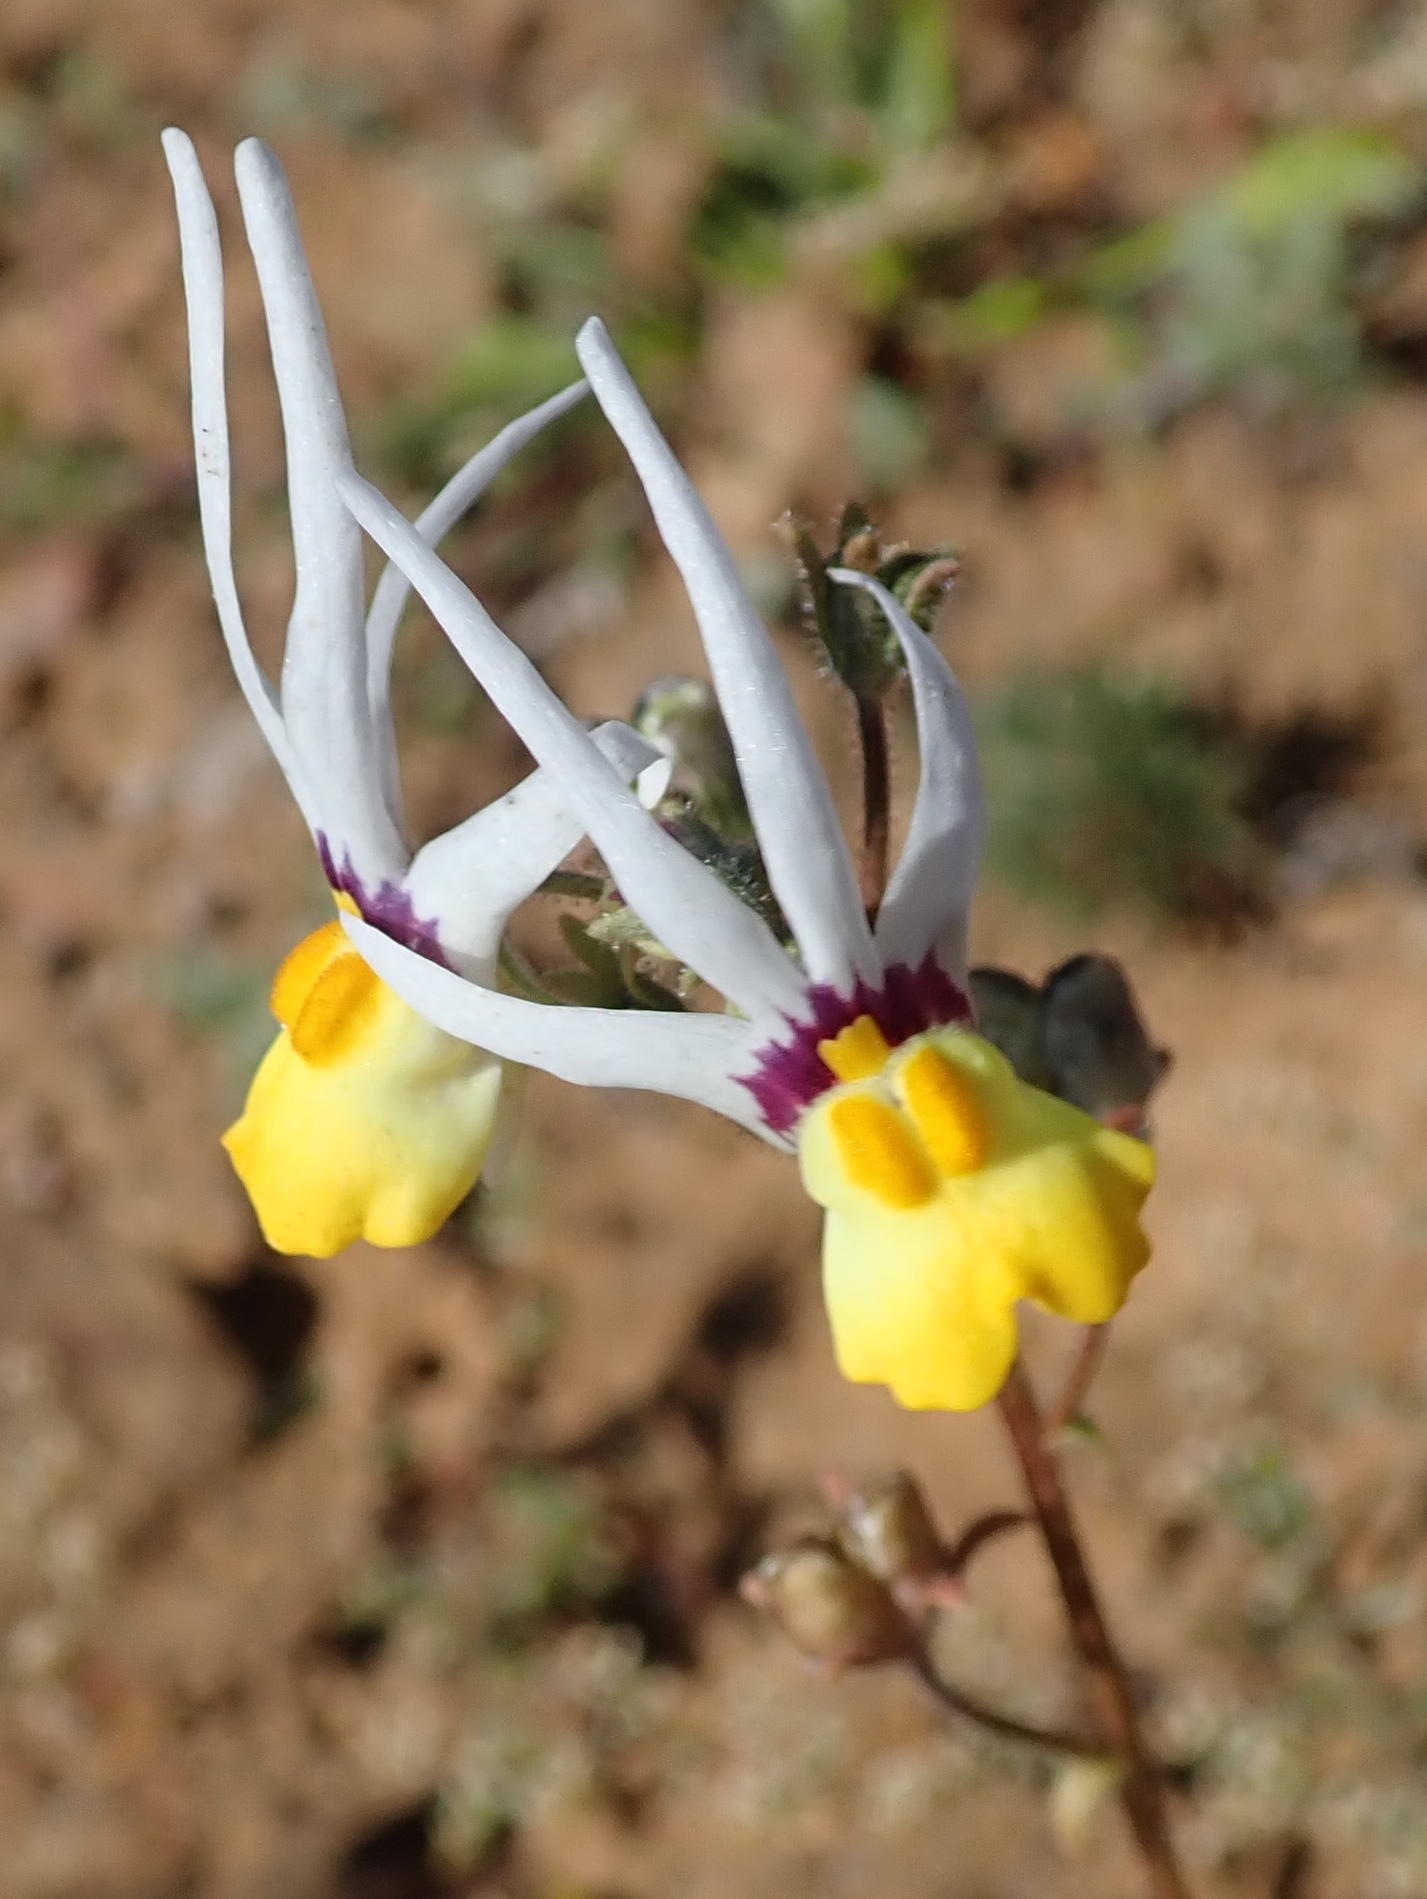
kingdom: Plantae
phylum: Tracheophyta
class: Magnoliopsida
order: Lamiales
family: Scrophulariaceae
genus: Nemesia
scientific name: Nemesia cheiranthus
